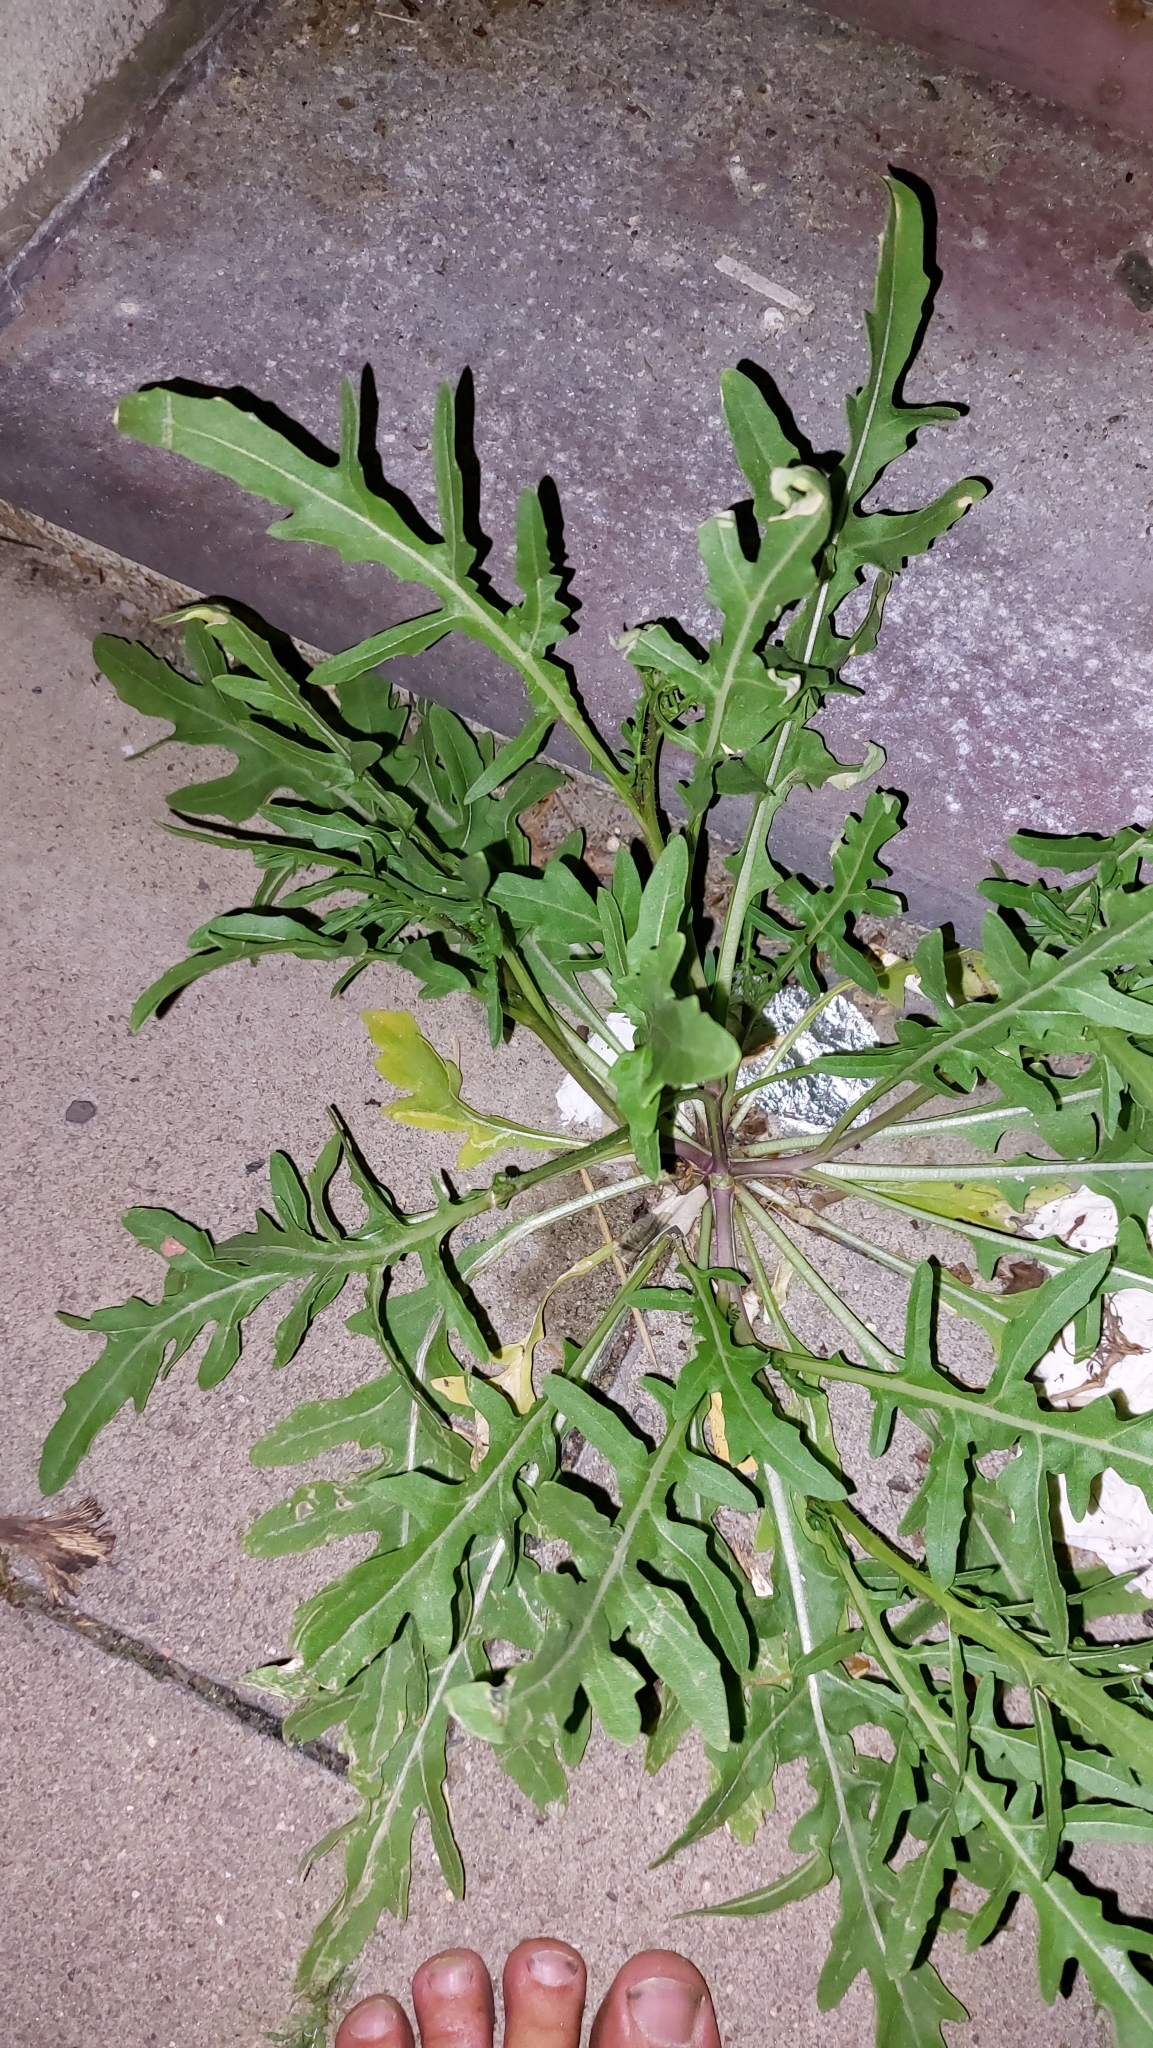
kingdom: Plantae
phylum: Tracheophyta
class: Magnoliopsida
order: Brassicales
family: Brassicaceae
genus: Diplotaxis
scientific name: Diplotaxis tenuifolia
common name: Perennial wall-rocket
